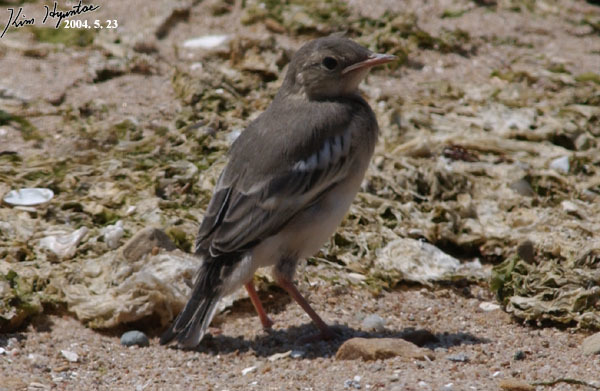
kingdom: Animalia
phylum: Chordata
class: Aves
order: Passeriformes
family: Motacillidae
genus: Motacilla
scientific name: Motacilla alba
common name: White wagtail
